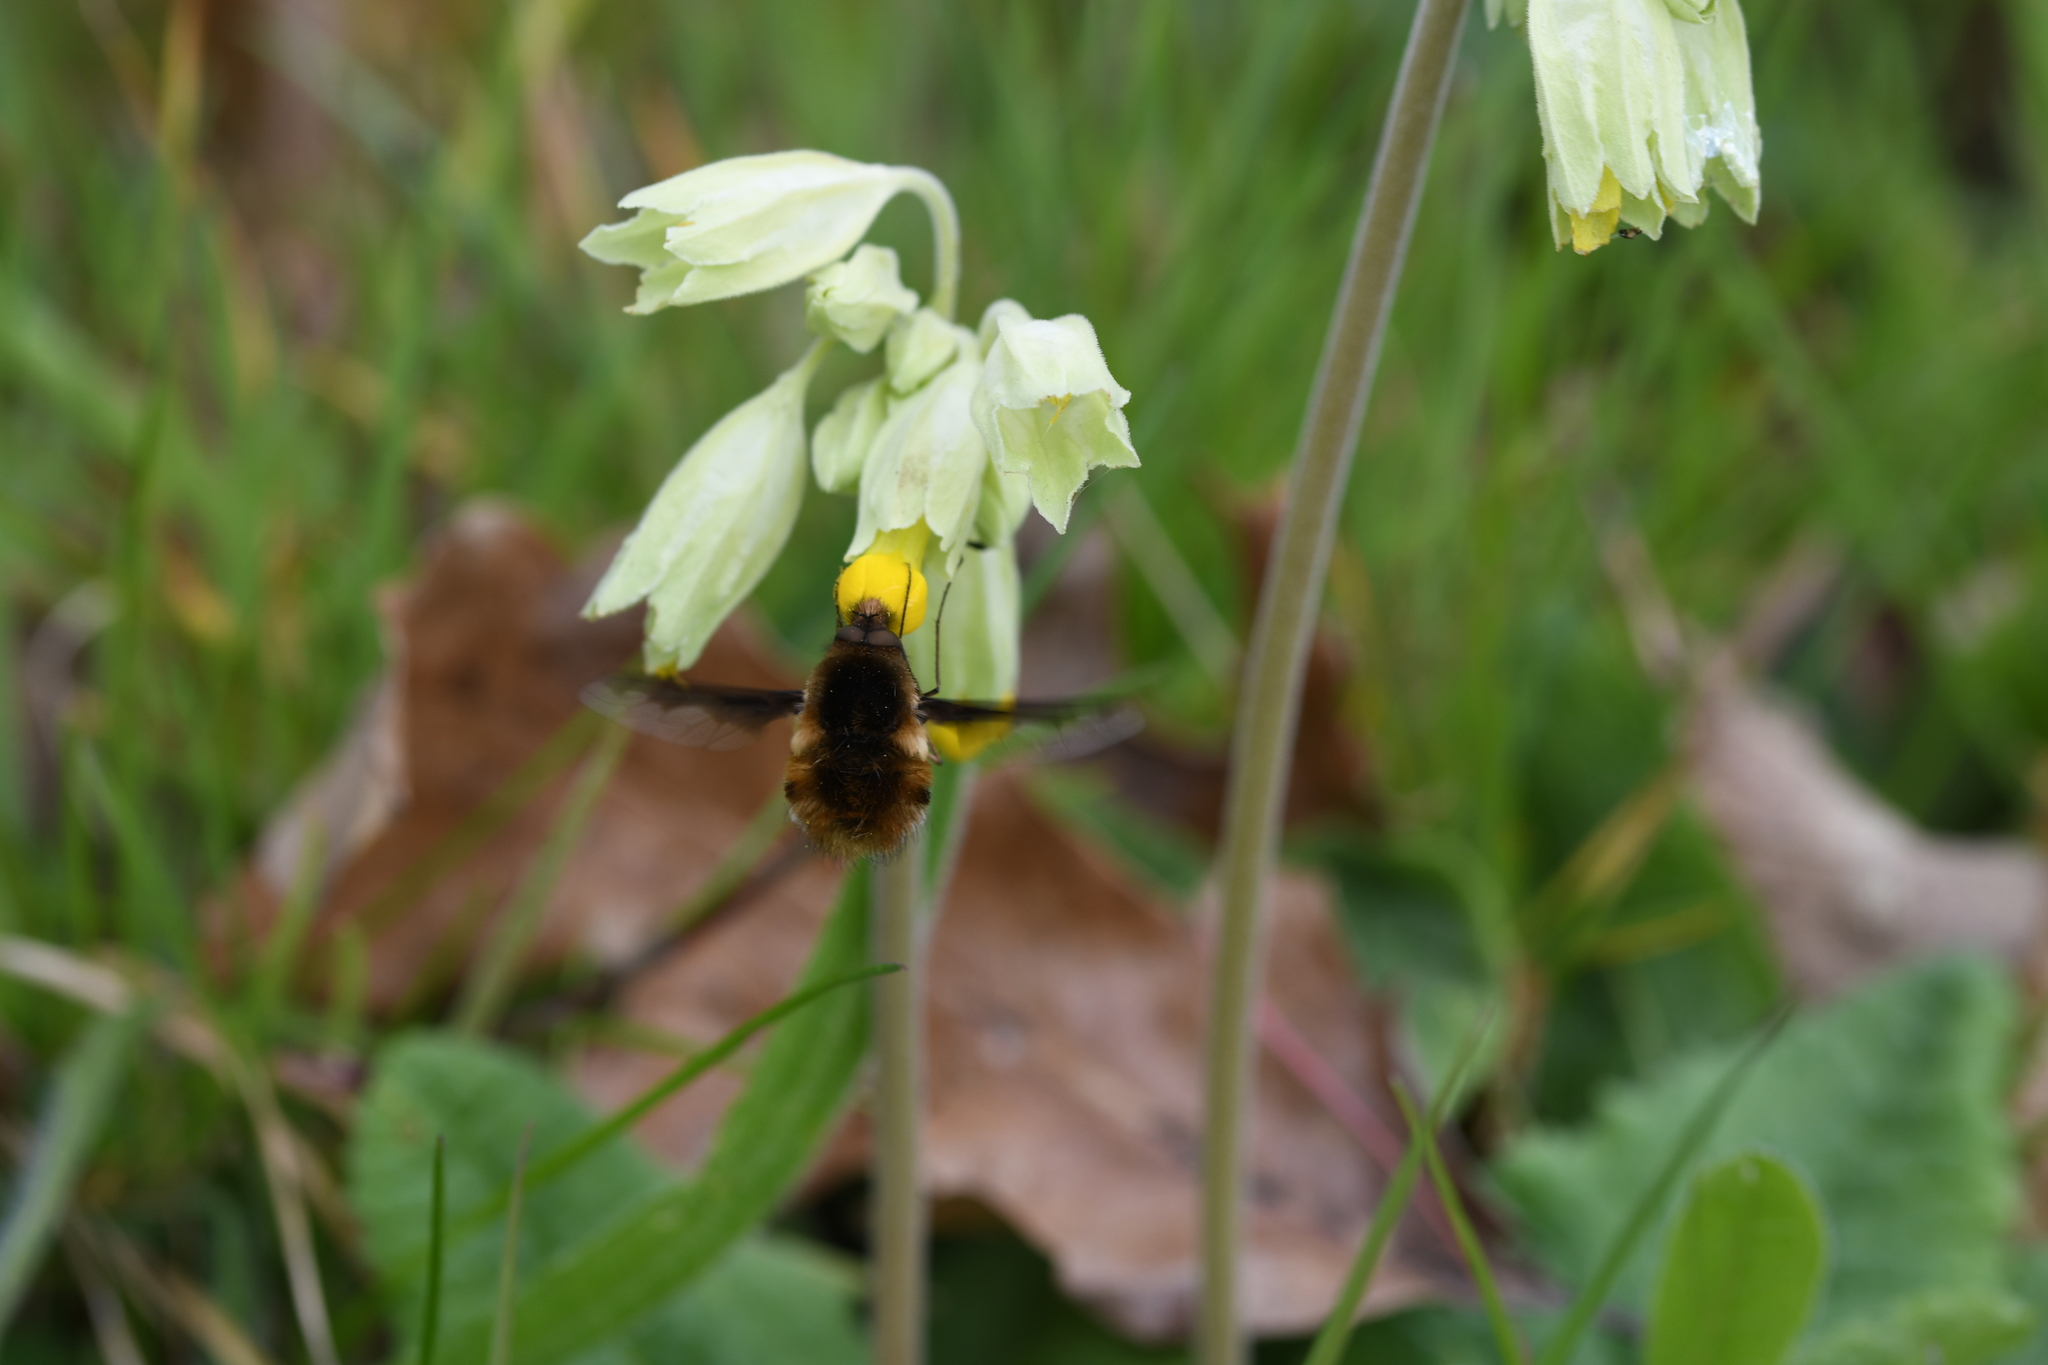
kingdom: Animalia
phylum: Arthropoda
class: Insecta
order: Diptera
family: Bombyliidae
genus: Bombylius
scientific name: Bombylius major
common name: Bee fly
